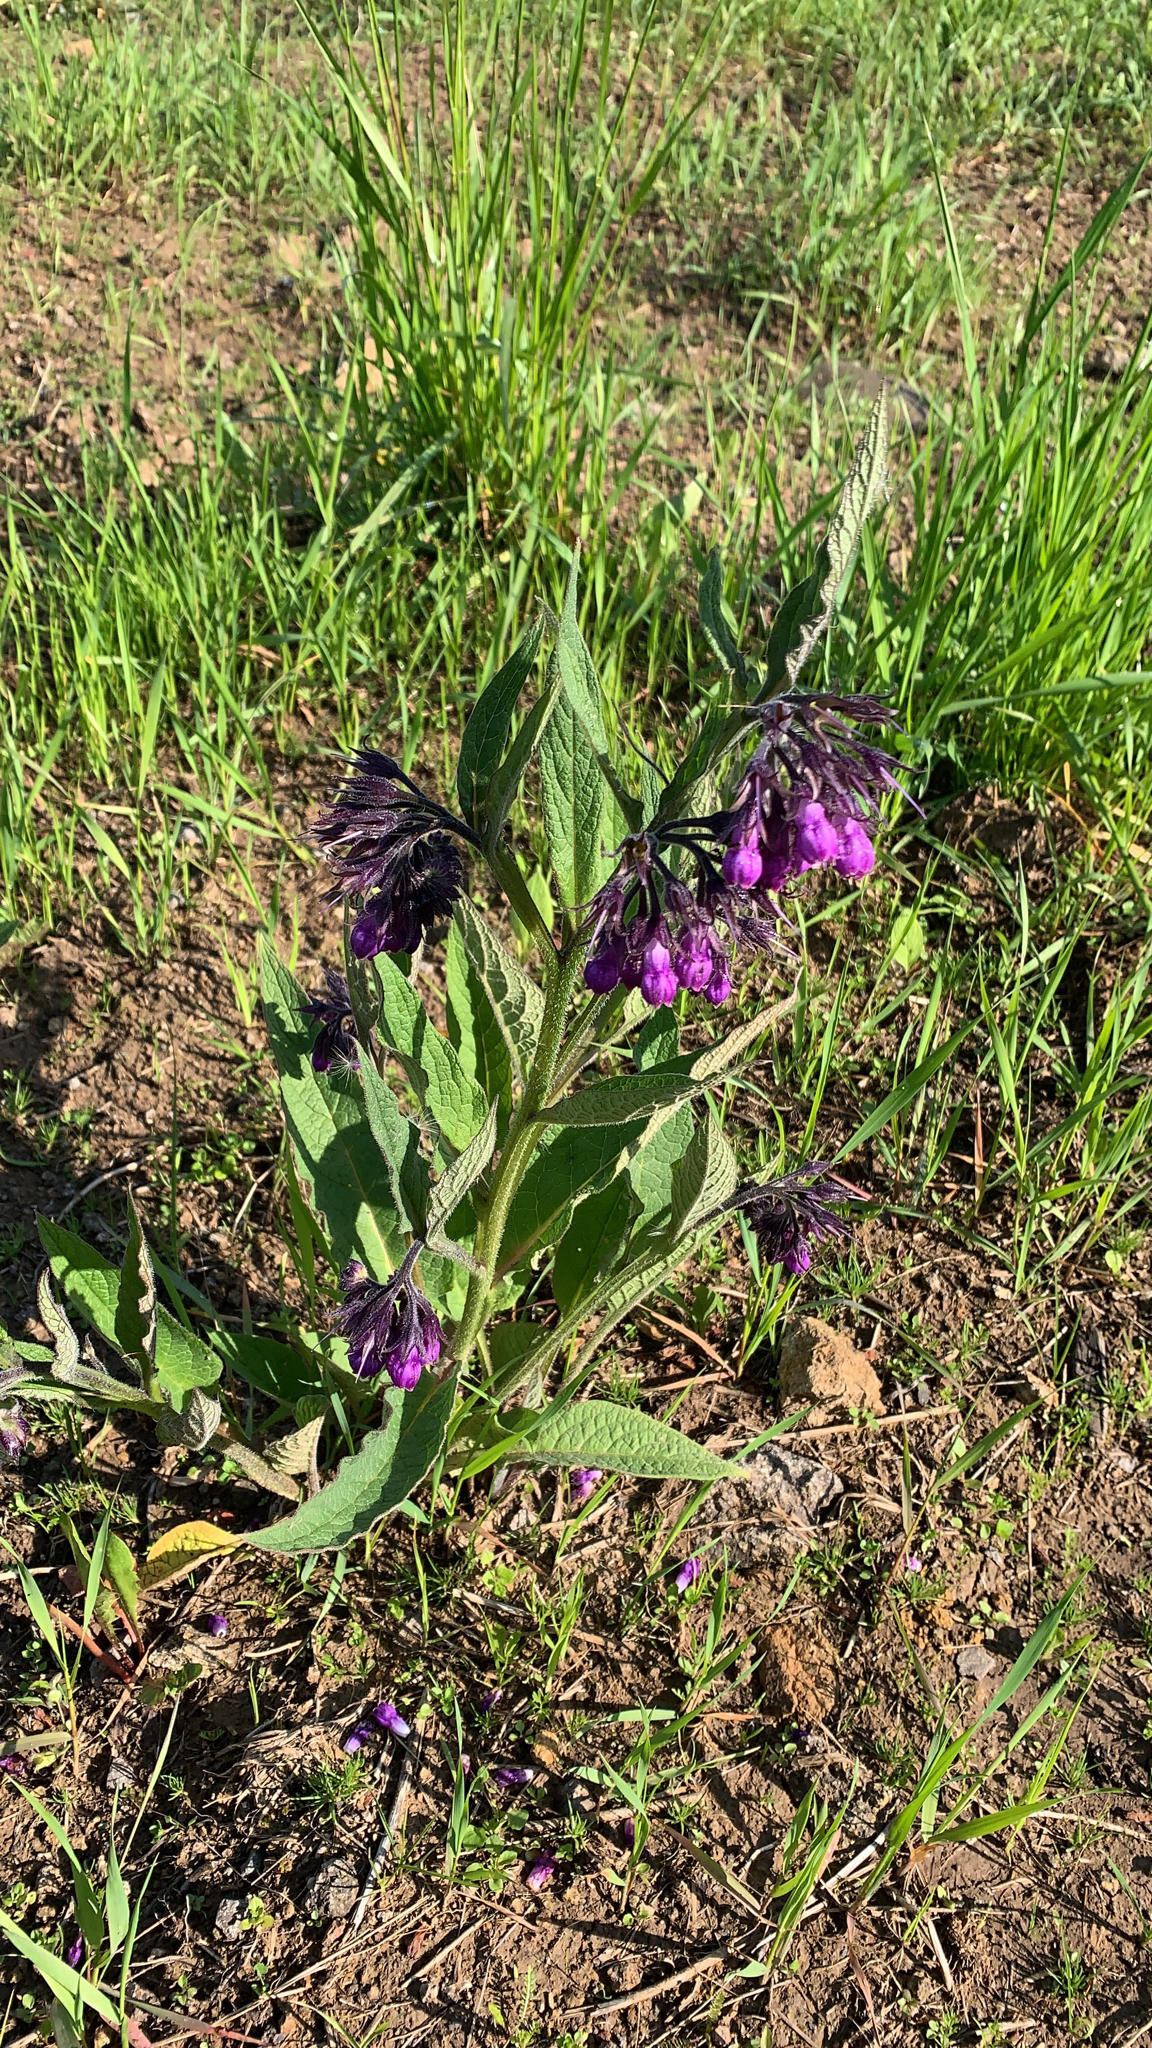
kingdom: Plantae
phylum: Tracheophyta
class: Magnoliopsida
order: Boraginales
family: Boraginaceae
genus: Symphytum
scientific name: Symphytum officinale
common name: Common comfrey
